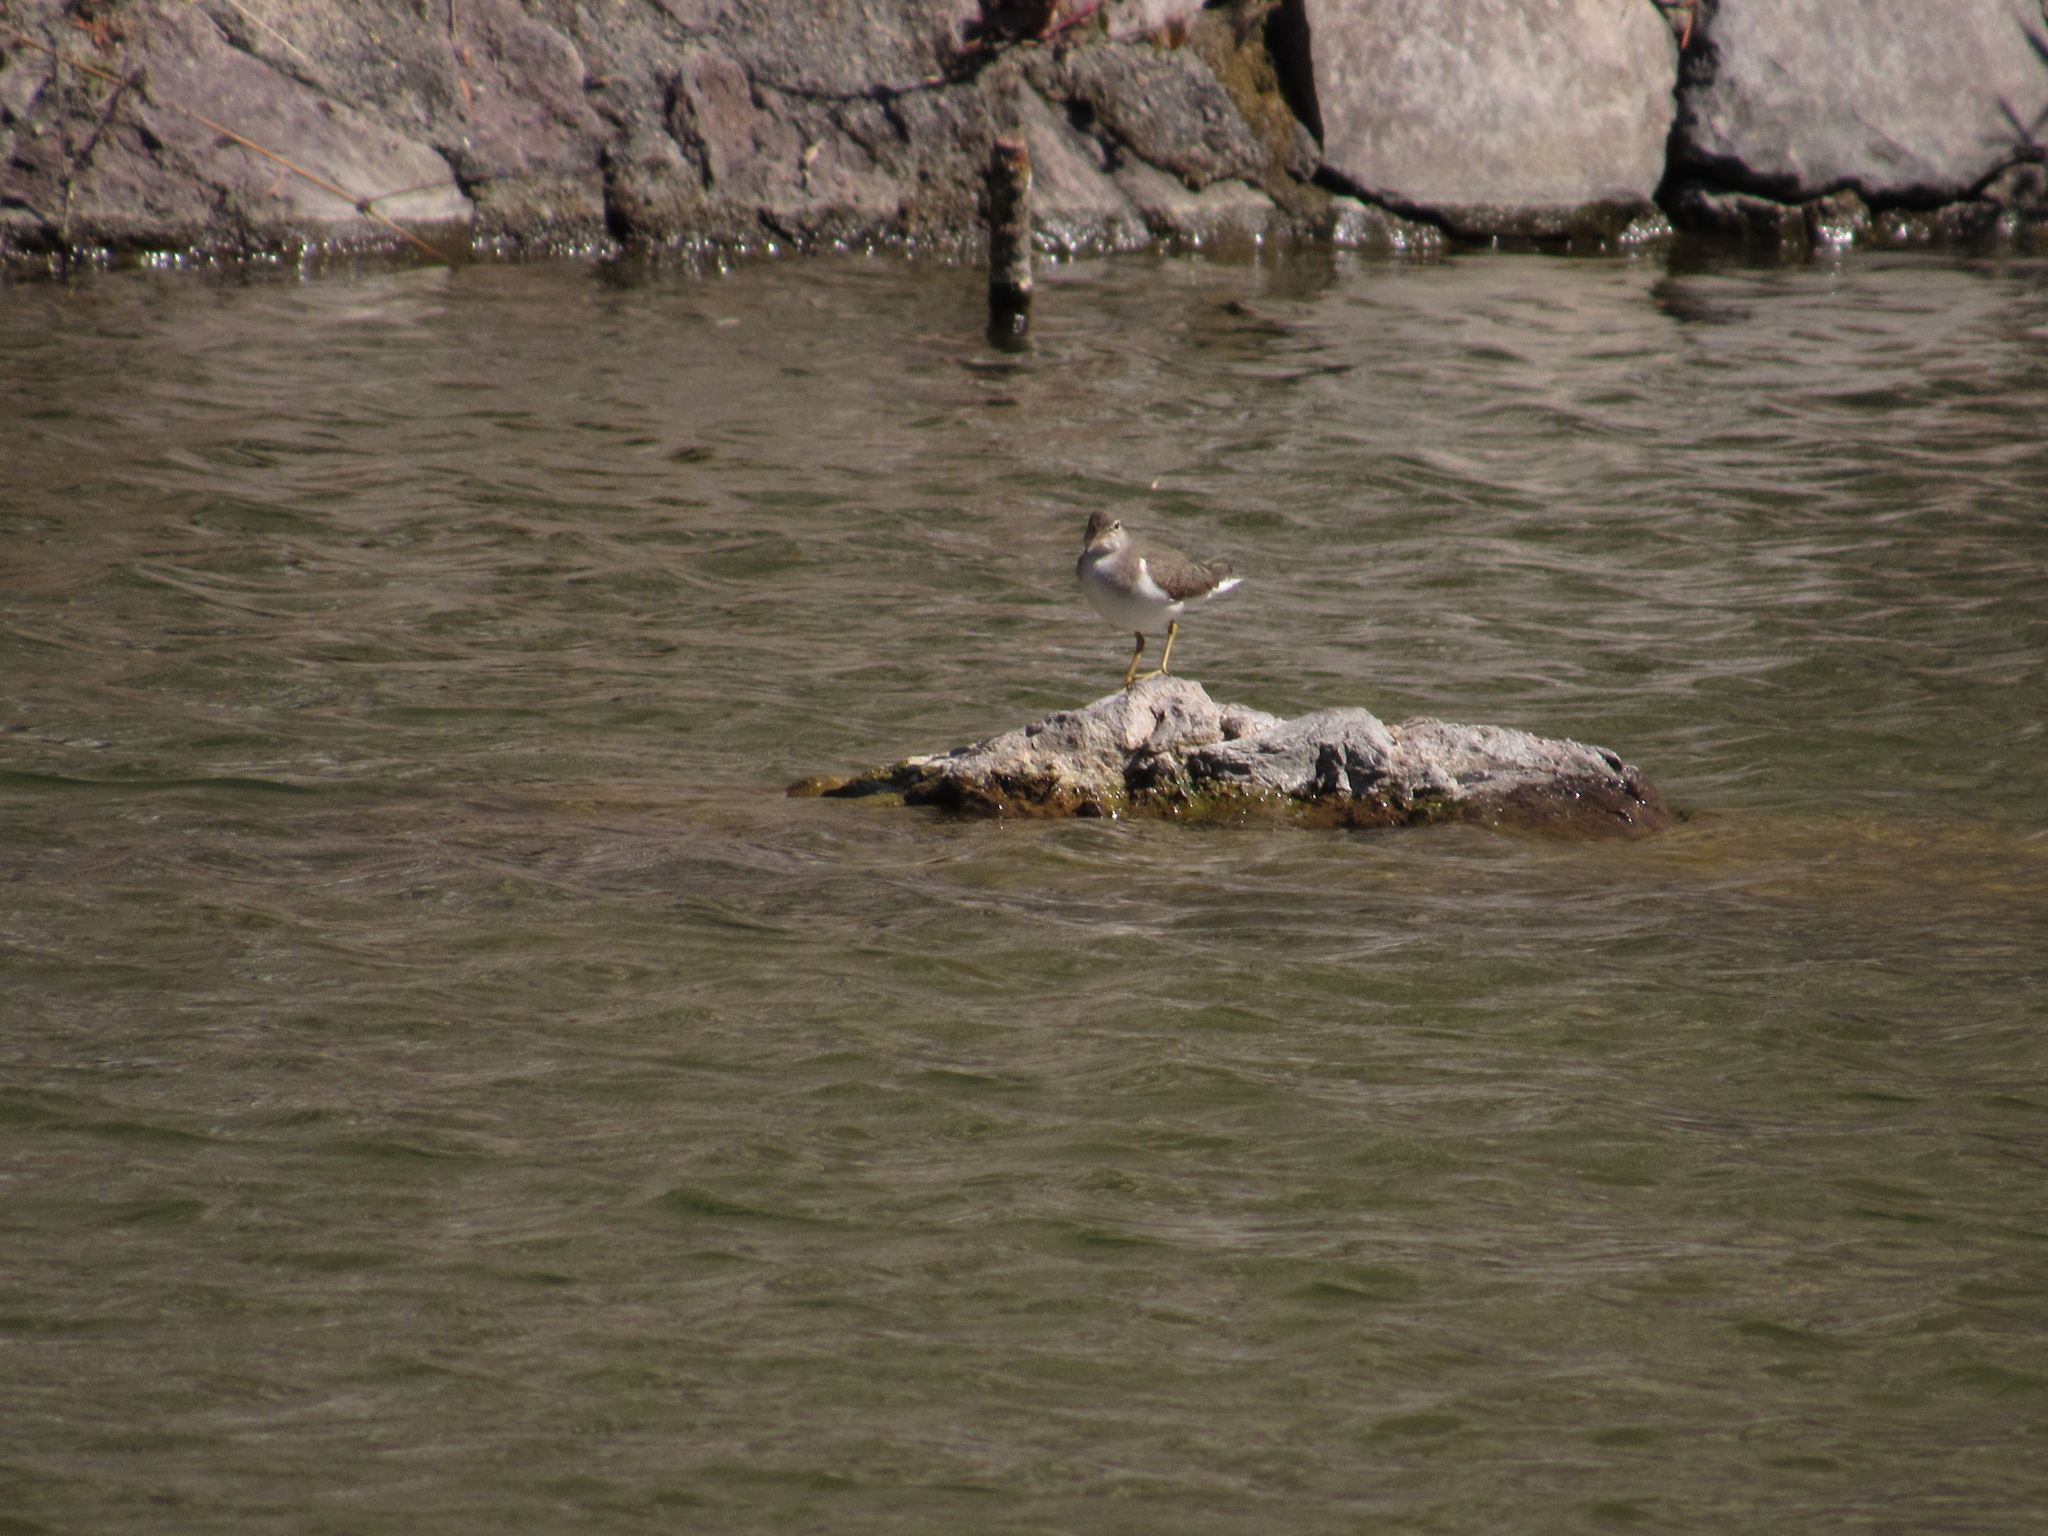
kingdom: Animalia
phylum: Chordata
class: Aves
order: Charadriiformes
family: Scolopacidae
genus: Actitis
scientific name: Actitis macularius
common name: Spotted sandpiper
